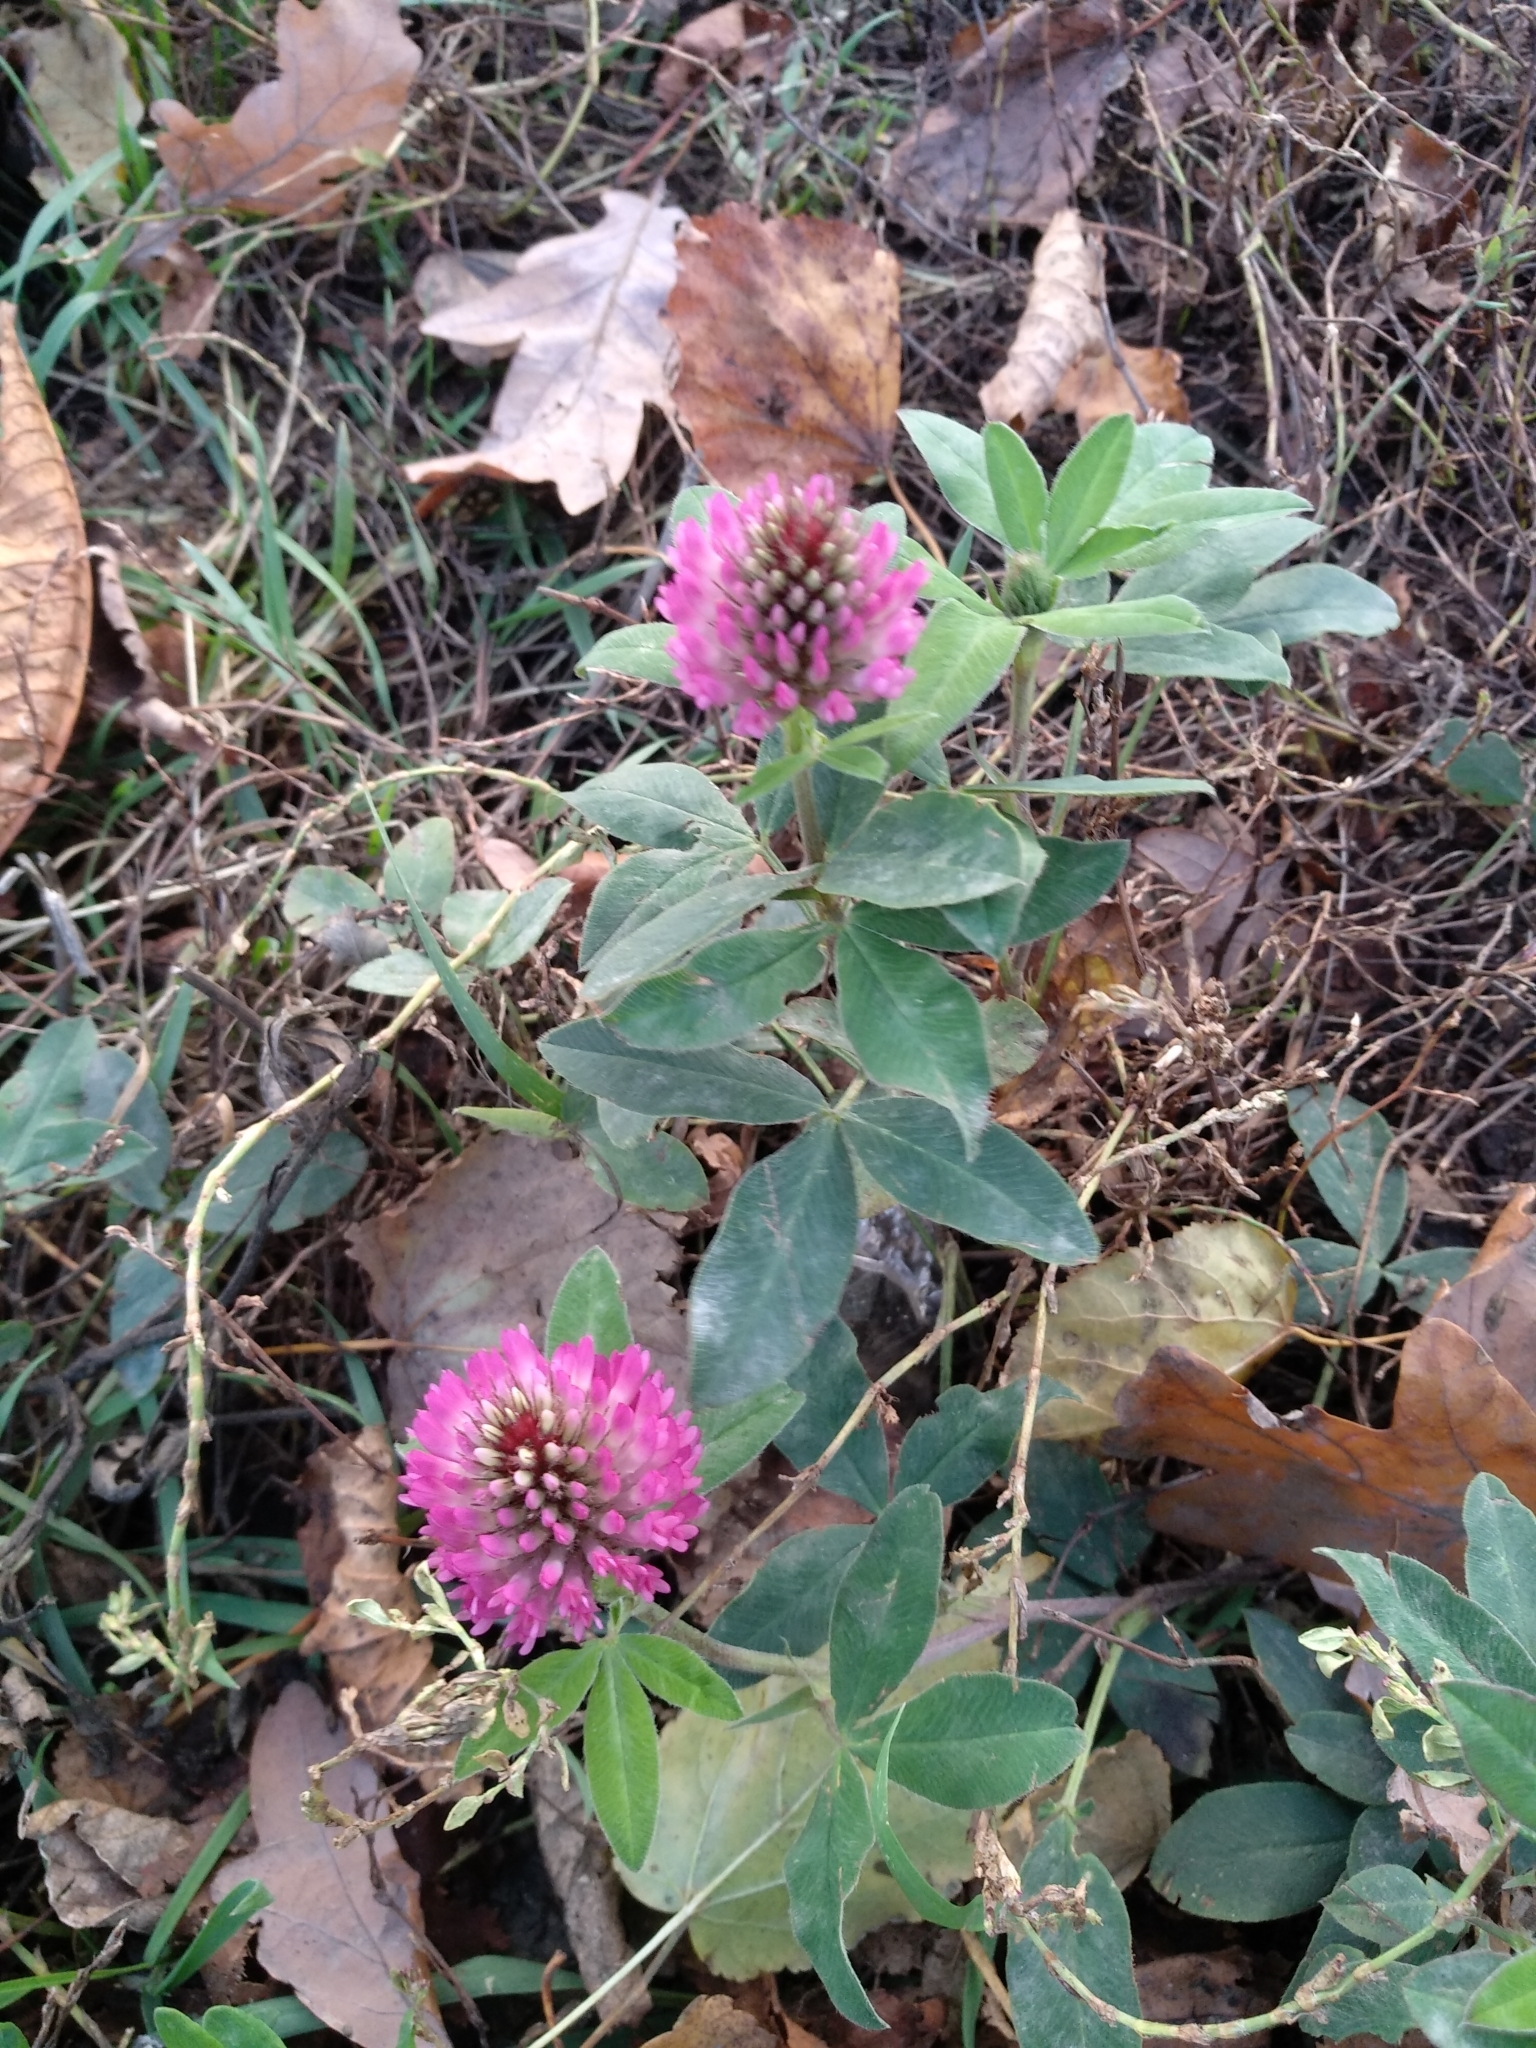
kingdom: Plantae
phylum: Tracheophyta
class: Magnoliopsida
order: Fabales
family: Fabaceae
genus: Trifolium
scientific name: Trifolium medium
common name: Zigzag clover
